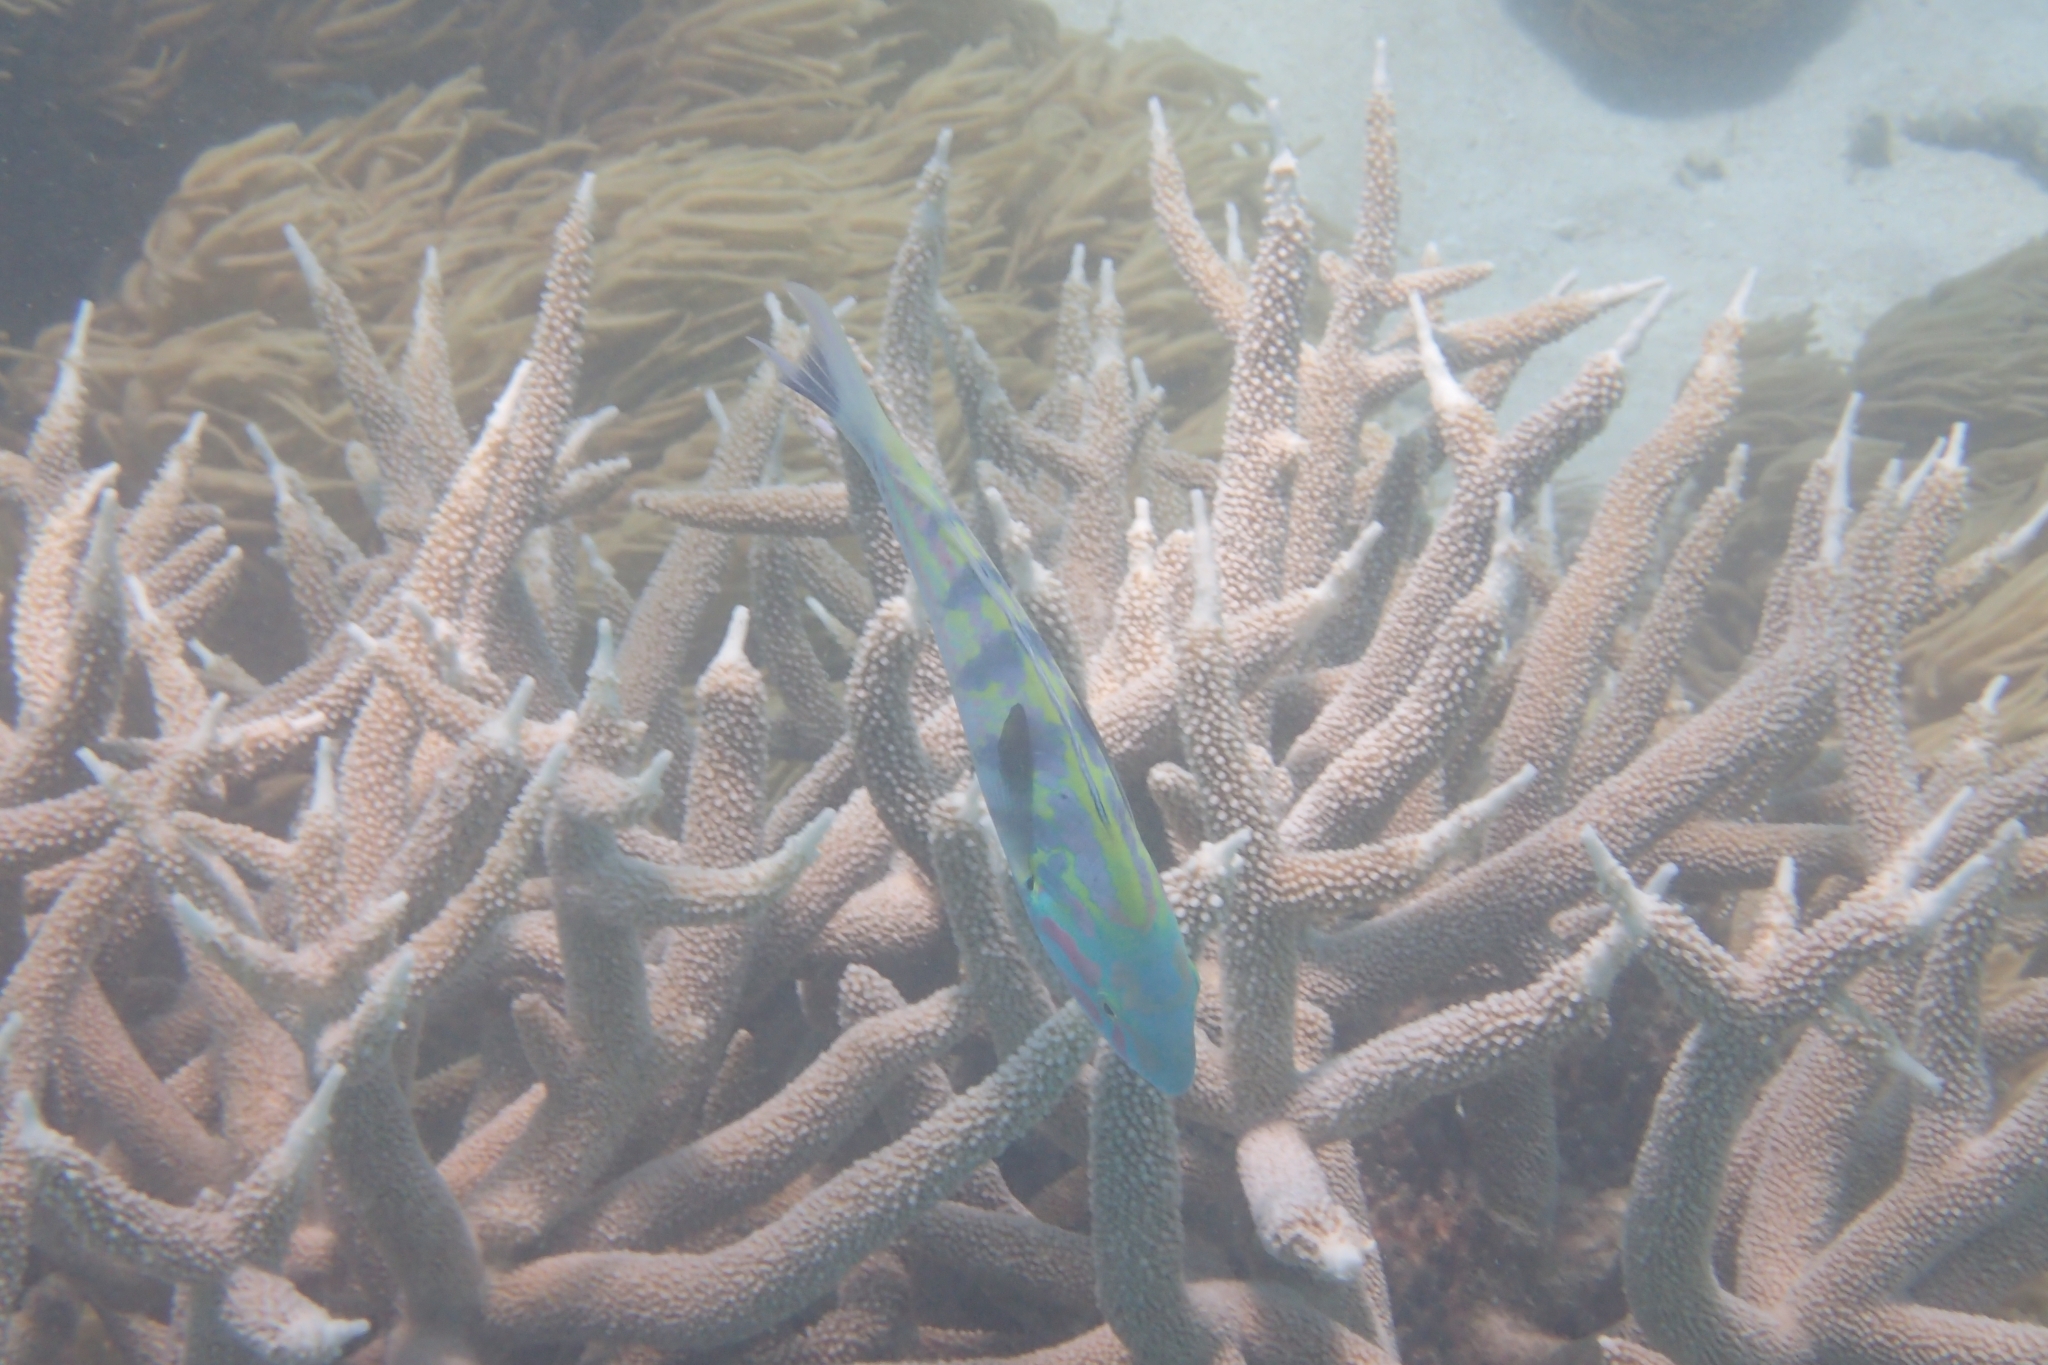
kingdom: Animalia
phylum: Chordata
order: Perciformes
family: Labridae
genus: Thalassoma
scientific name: Thalassoma hardwicke
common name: Sixbar wrasse
